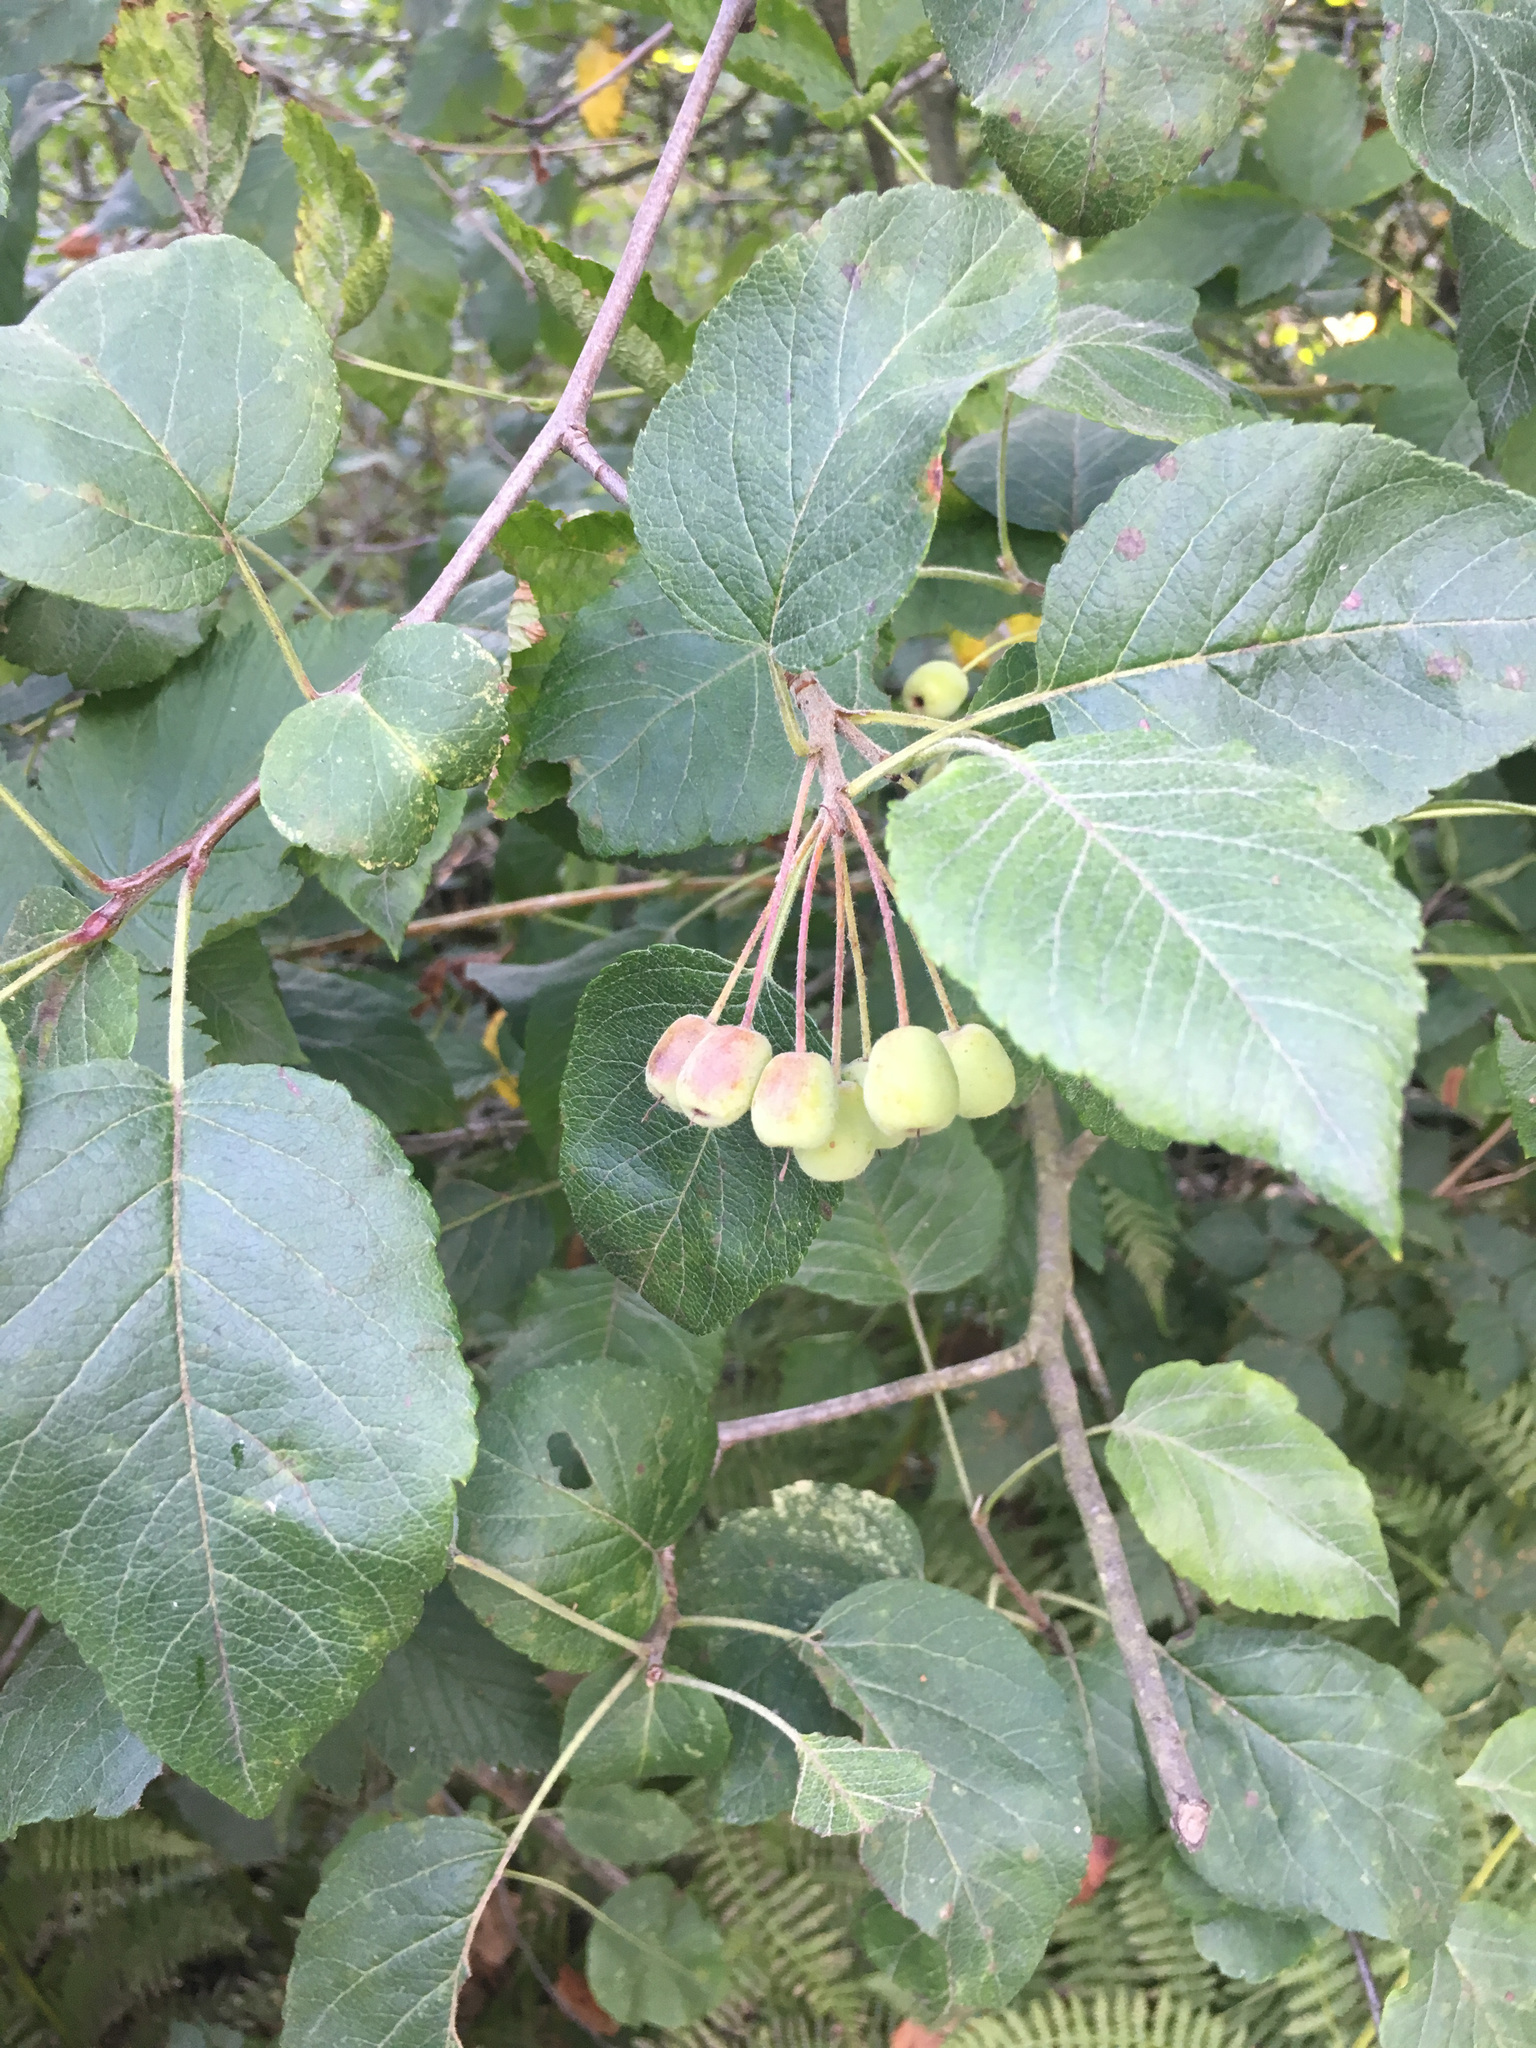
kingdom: Plantae
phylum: Tracheophyta
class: Magnoliopsida
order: Rosales
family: Rosaceae
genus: Malus
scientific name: Malus fusca
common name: Oregon crab apple
